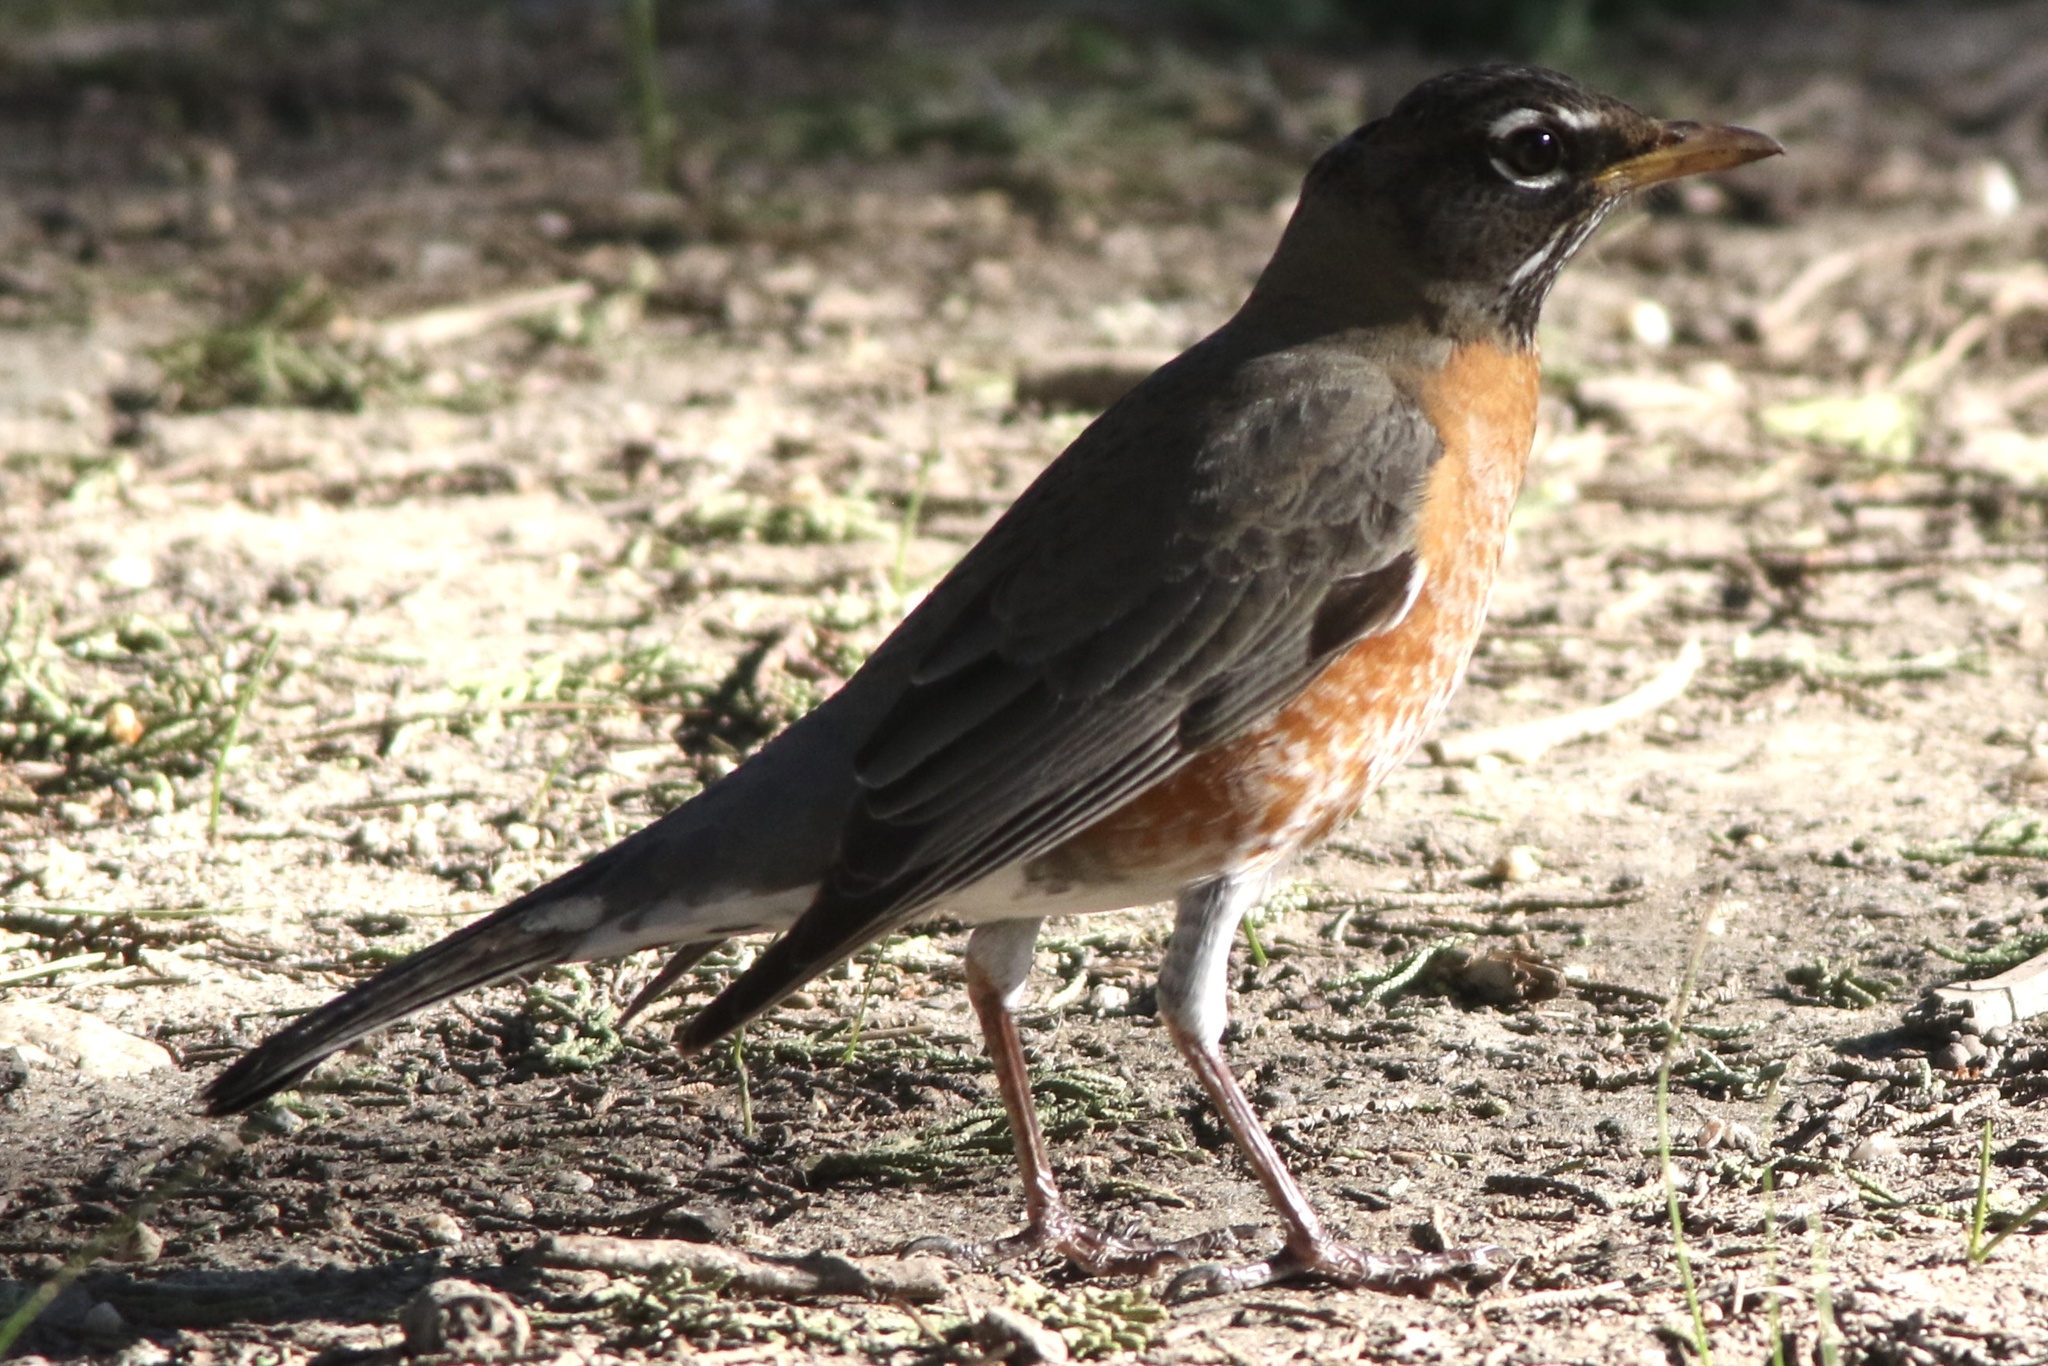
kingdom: Animalia
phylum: Chordata
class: Aves
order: Passeriformes
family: Turdidae
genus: Turdus
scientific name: Turdus migratorius
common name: American robin
